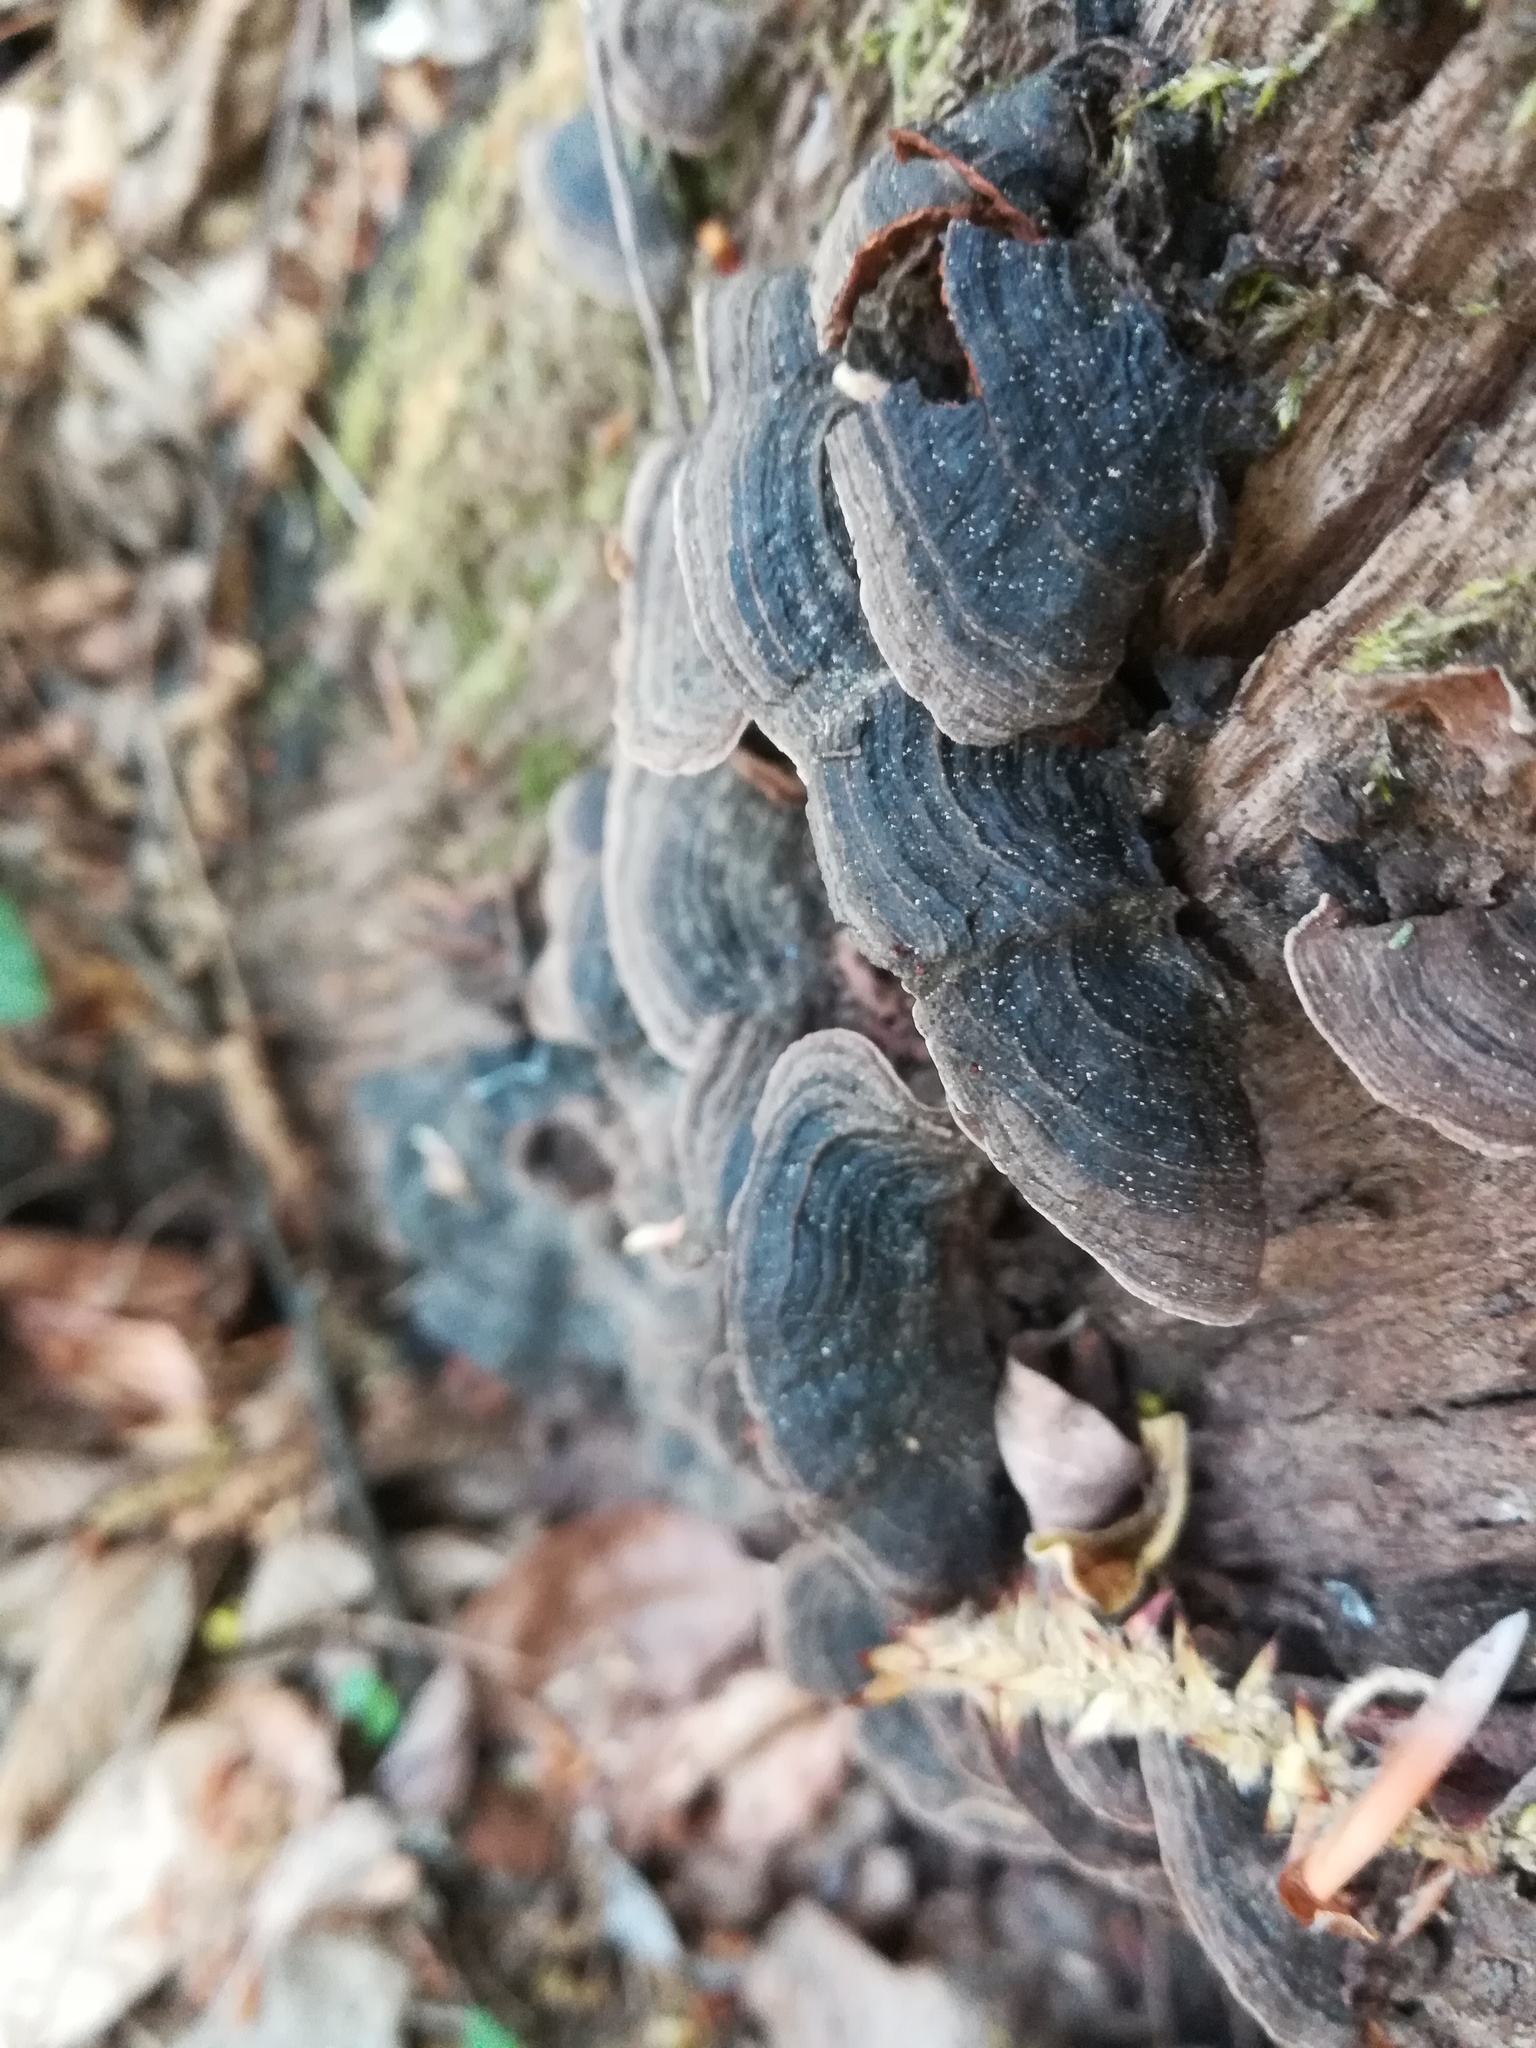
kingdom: Fungi
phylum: Basidiomycota
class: Agaricomycetes
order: Hymenochaetales
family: Hymenochaetaceae
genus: Hymenochaete
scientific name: Hymenochaete rubiginosa
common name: Oak curtain crust
